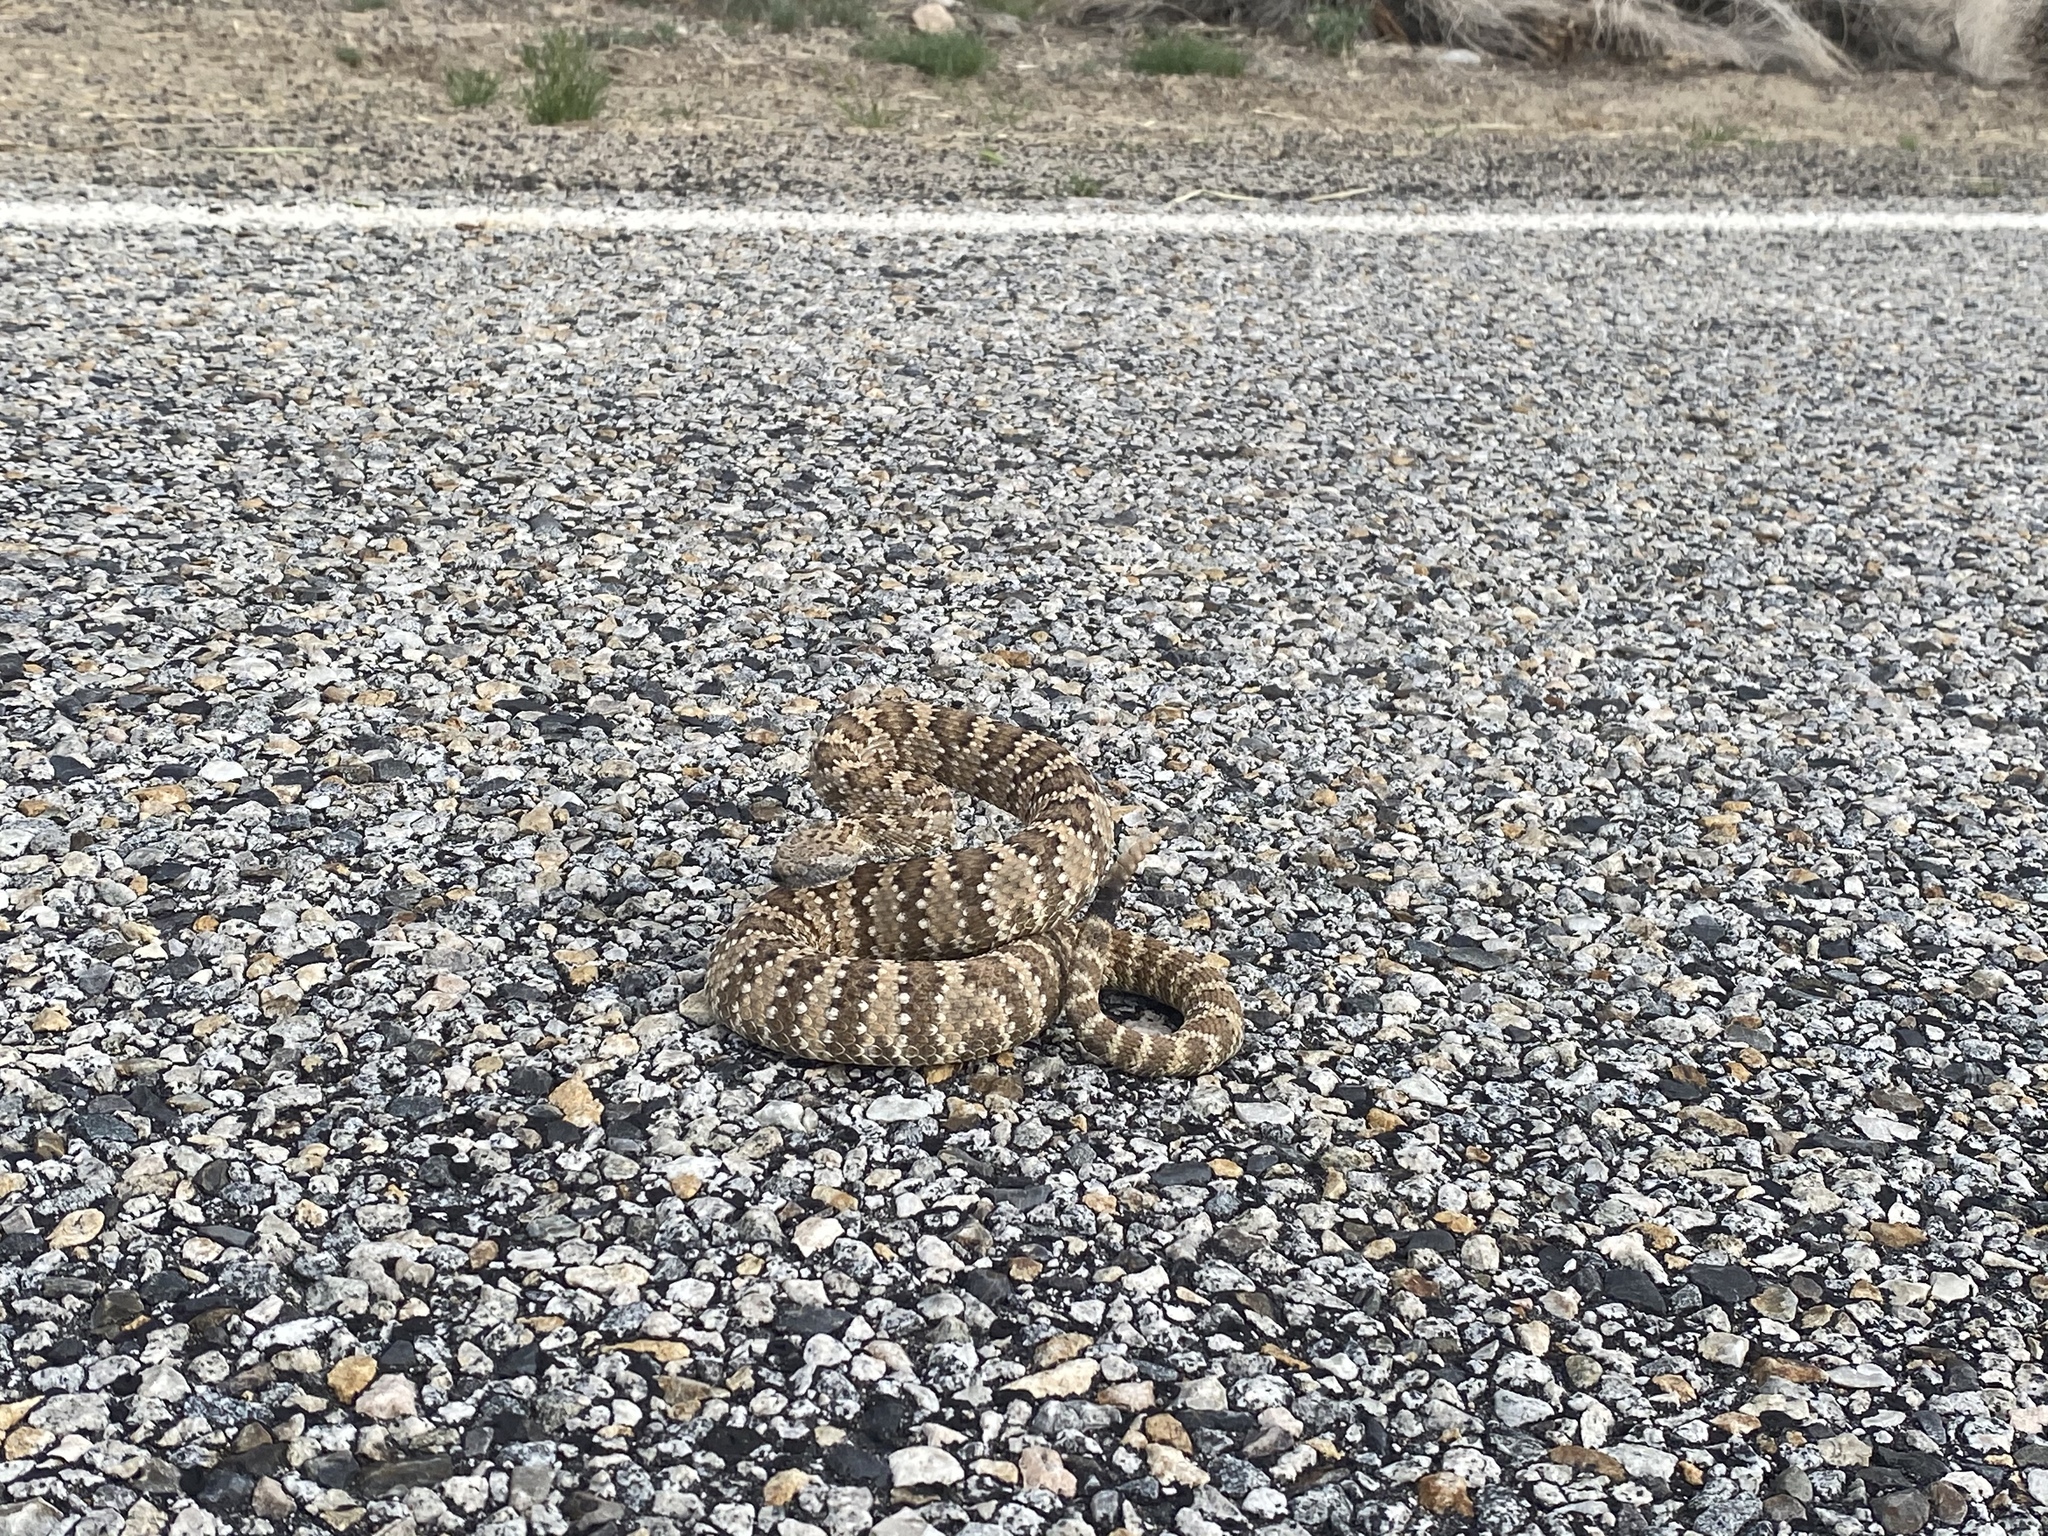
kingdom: Animalia
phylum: Chordata
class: Squamata
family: Viperidae
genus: Crotalus
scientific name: Crotalus stephensi
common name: Panamint rattlesnake
